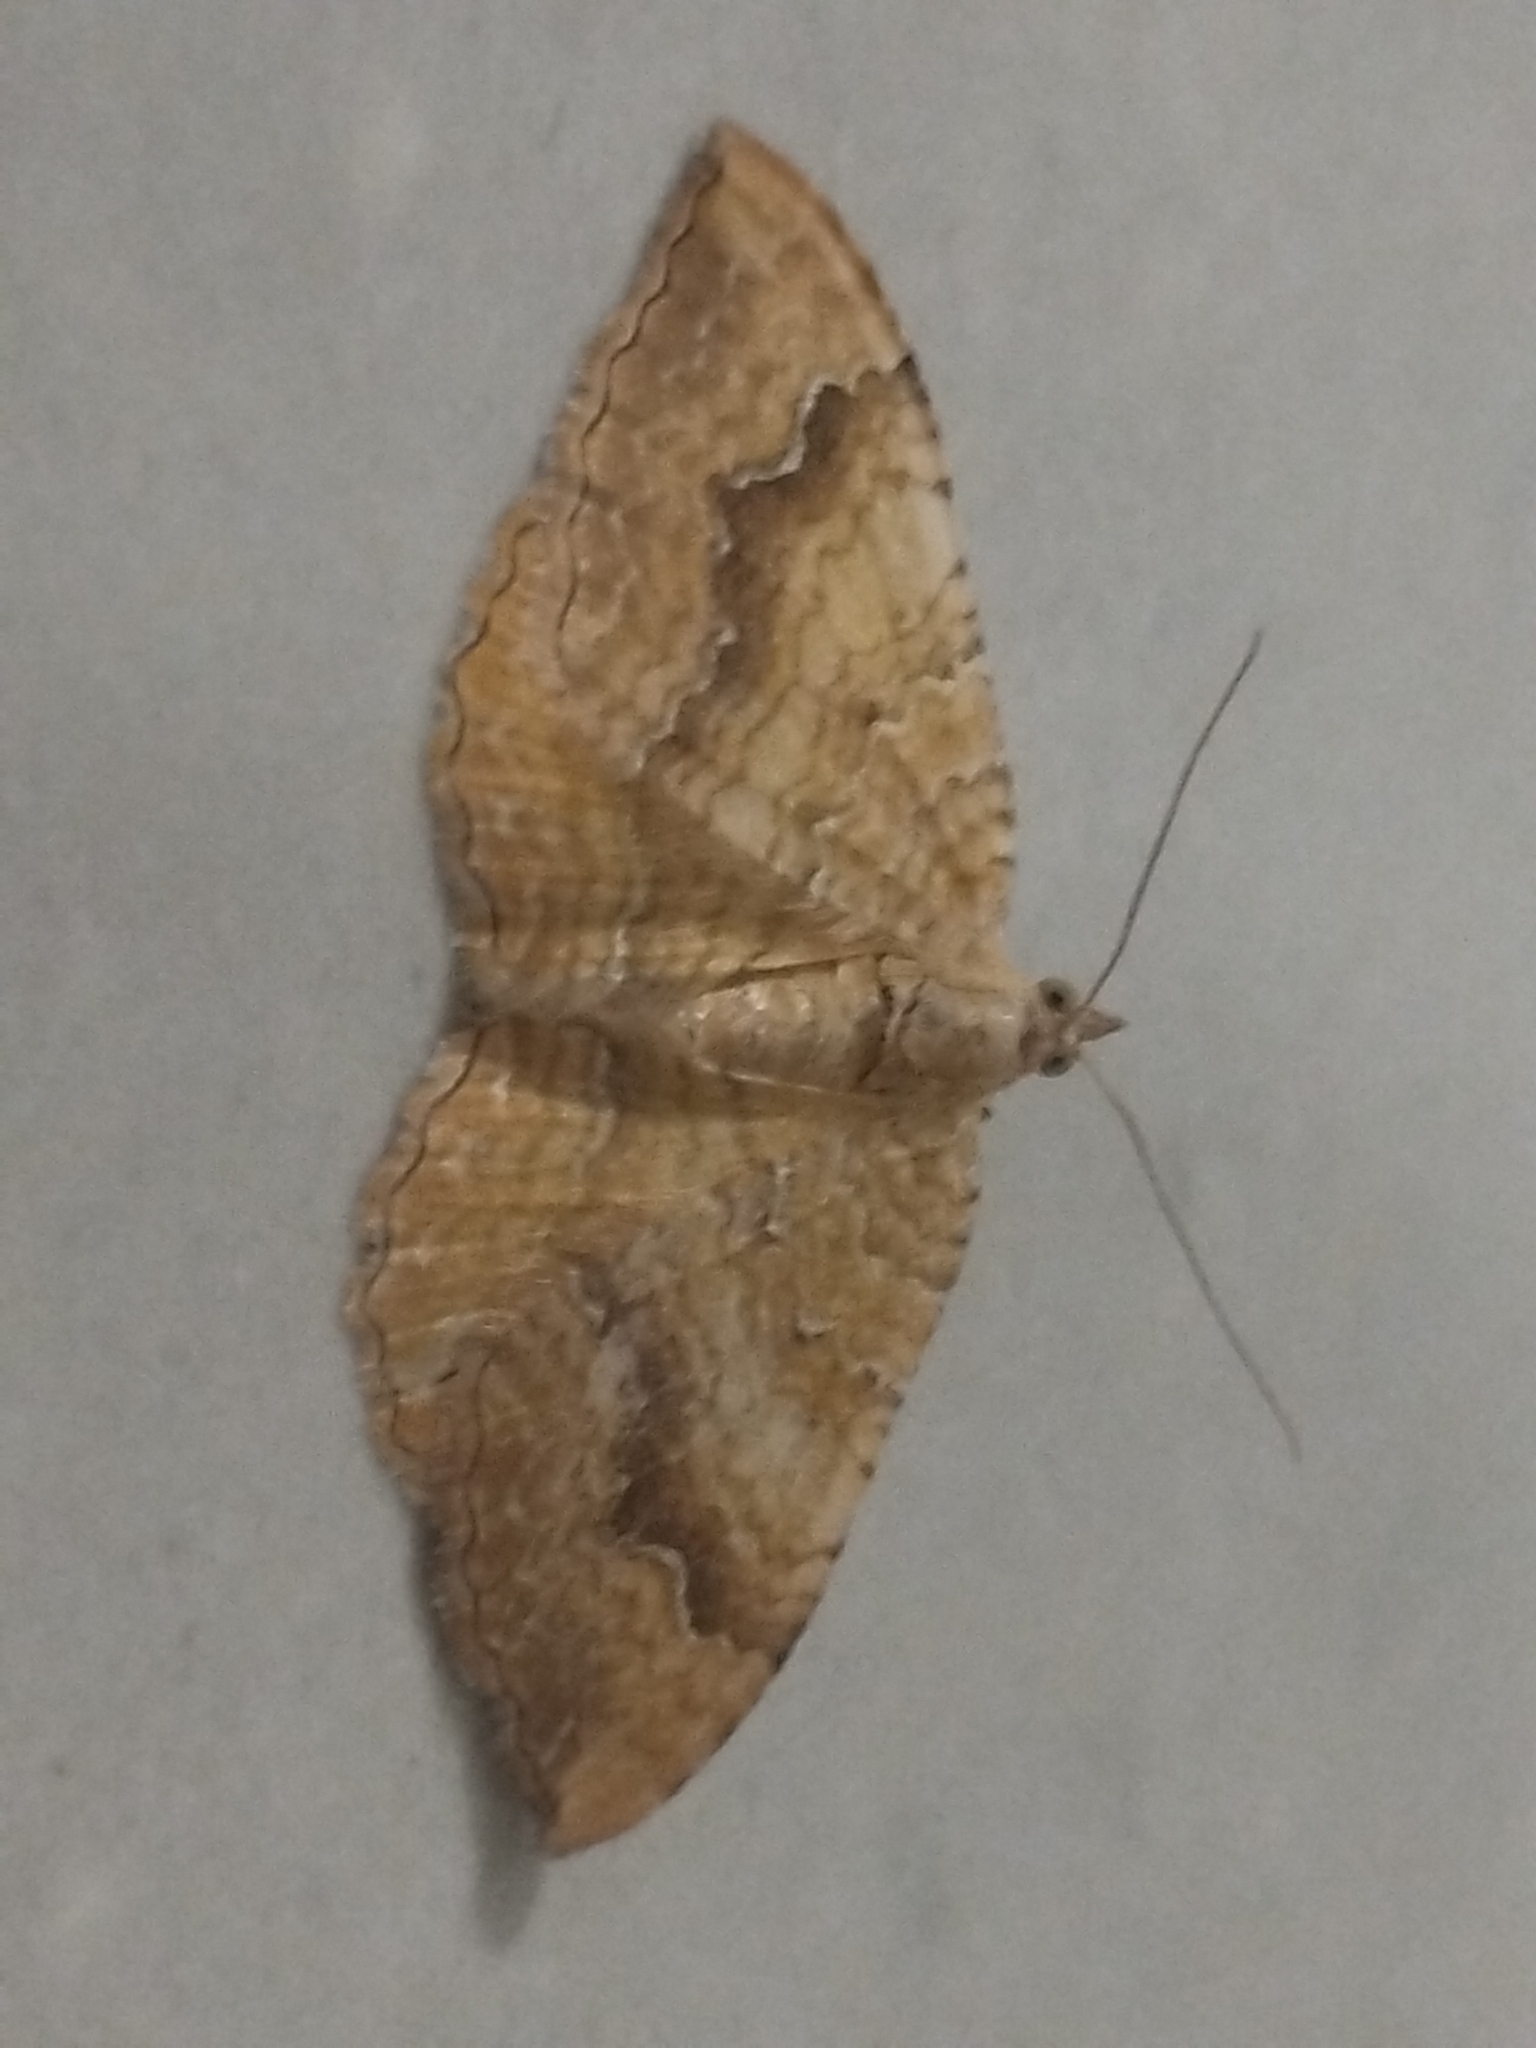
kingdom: Animalia
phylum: Arthropoda
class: Insecta
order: Lepidoptera
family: Geometridae
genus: Camptogramma
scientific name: Camptogramma bilineata
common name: Yellow shell
